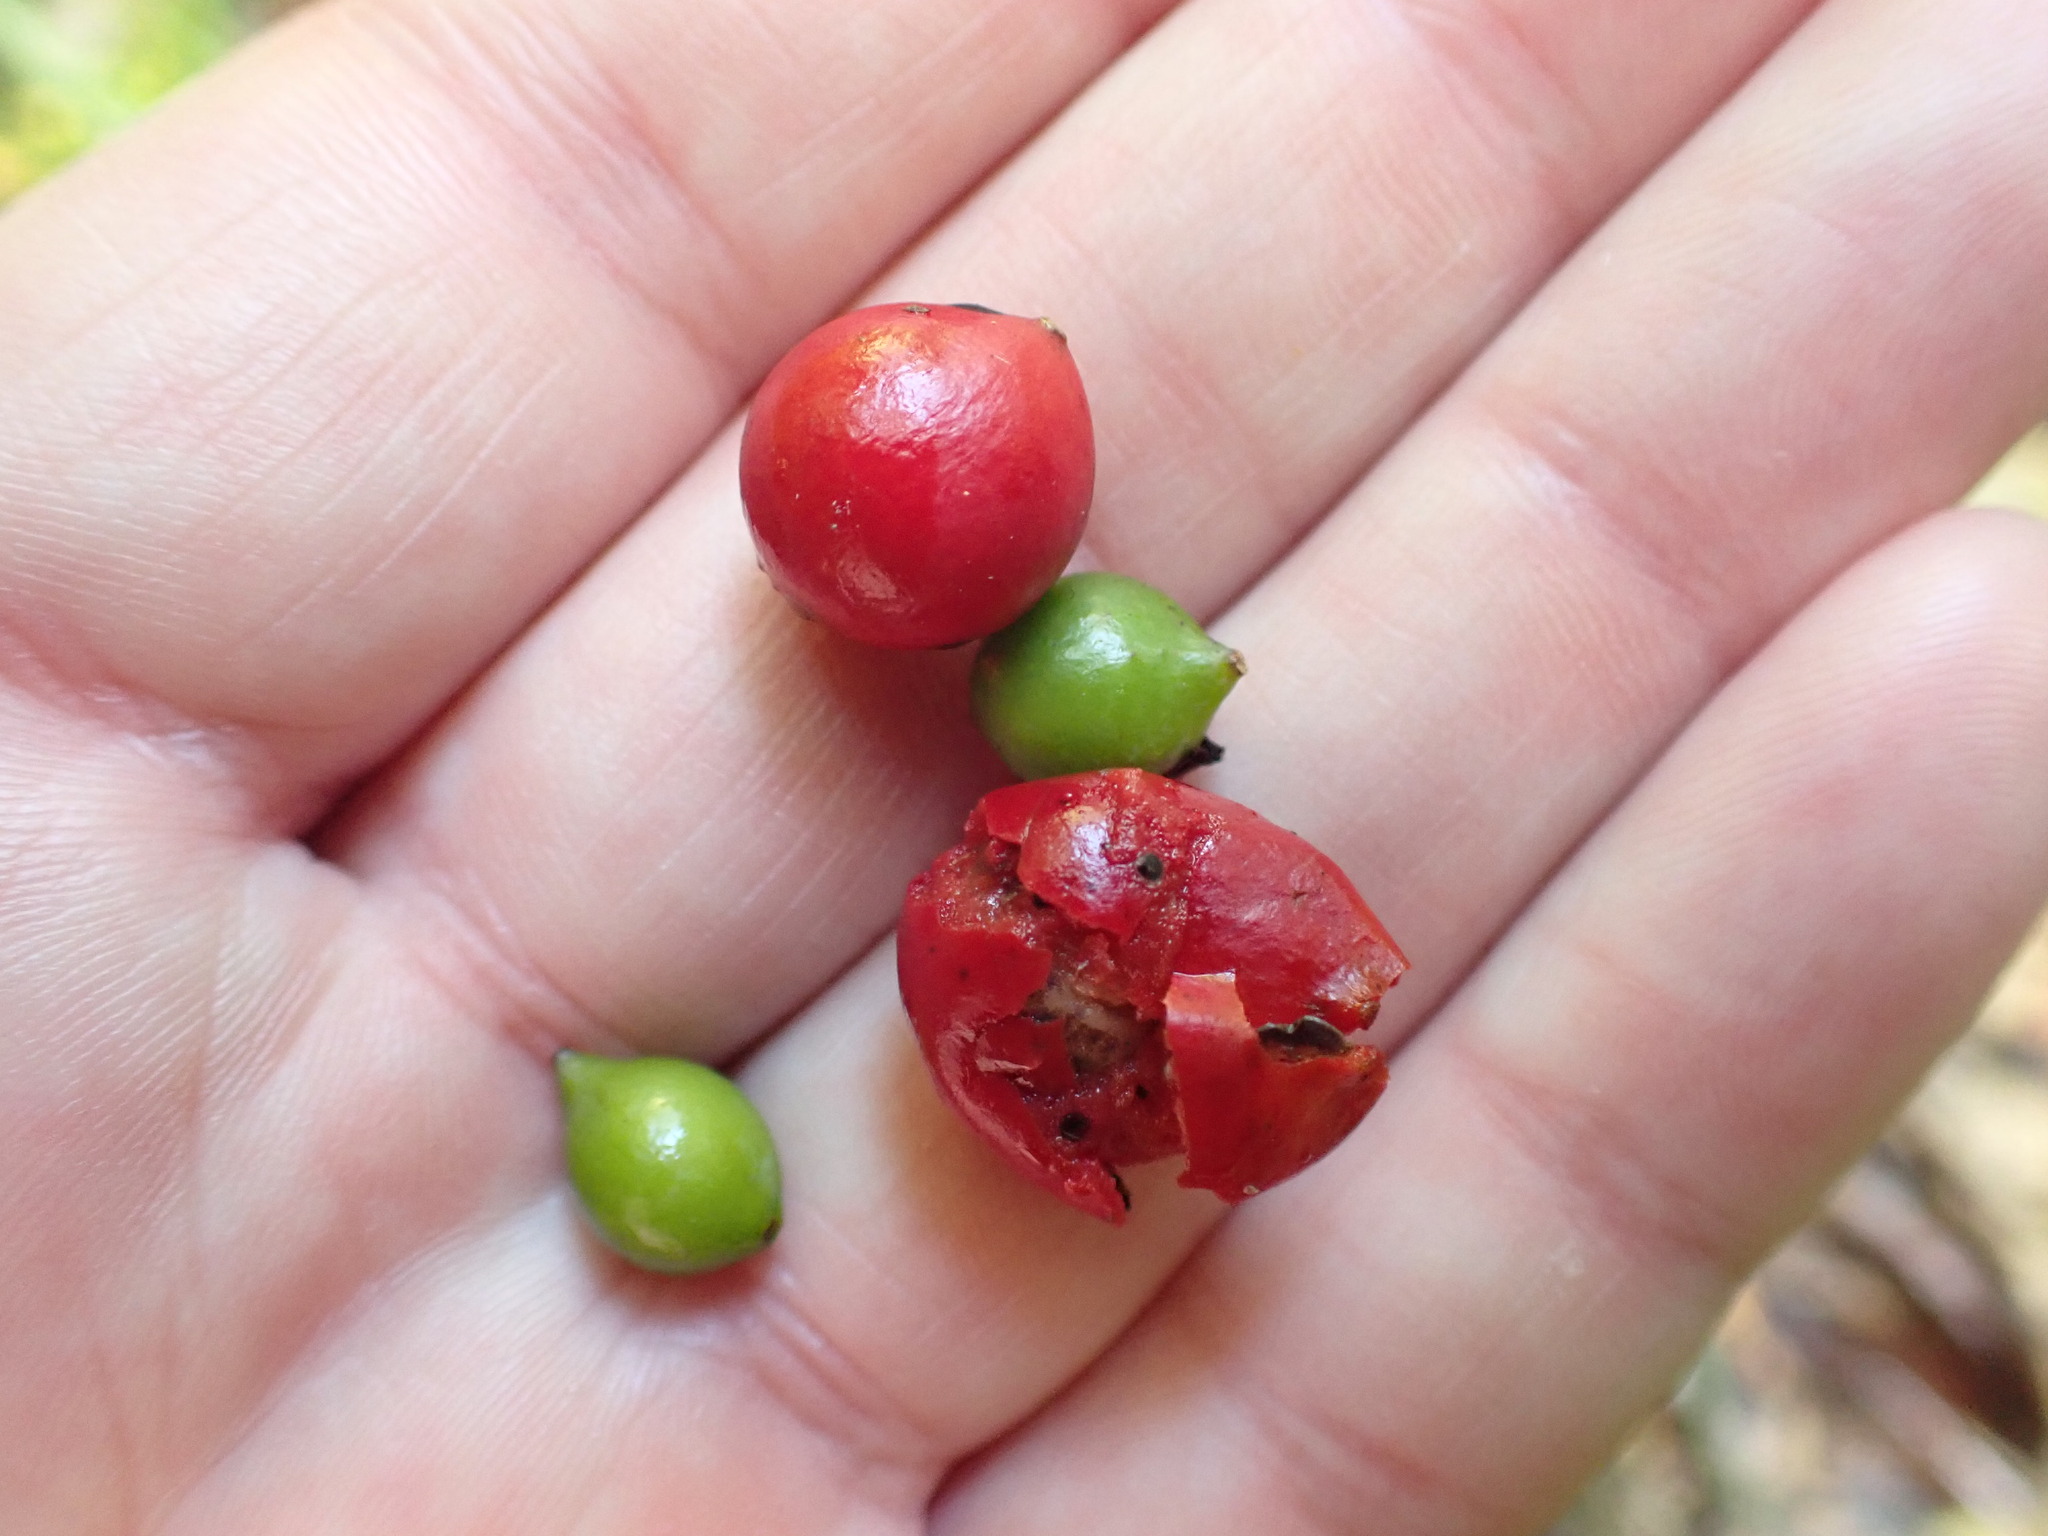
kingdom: Plantae
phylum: Tracheophyta
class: Liliopsida
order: Liliales
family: Ripogonaceae
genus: Ripogonum
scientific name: Ripogonum scandens
